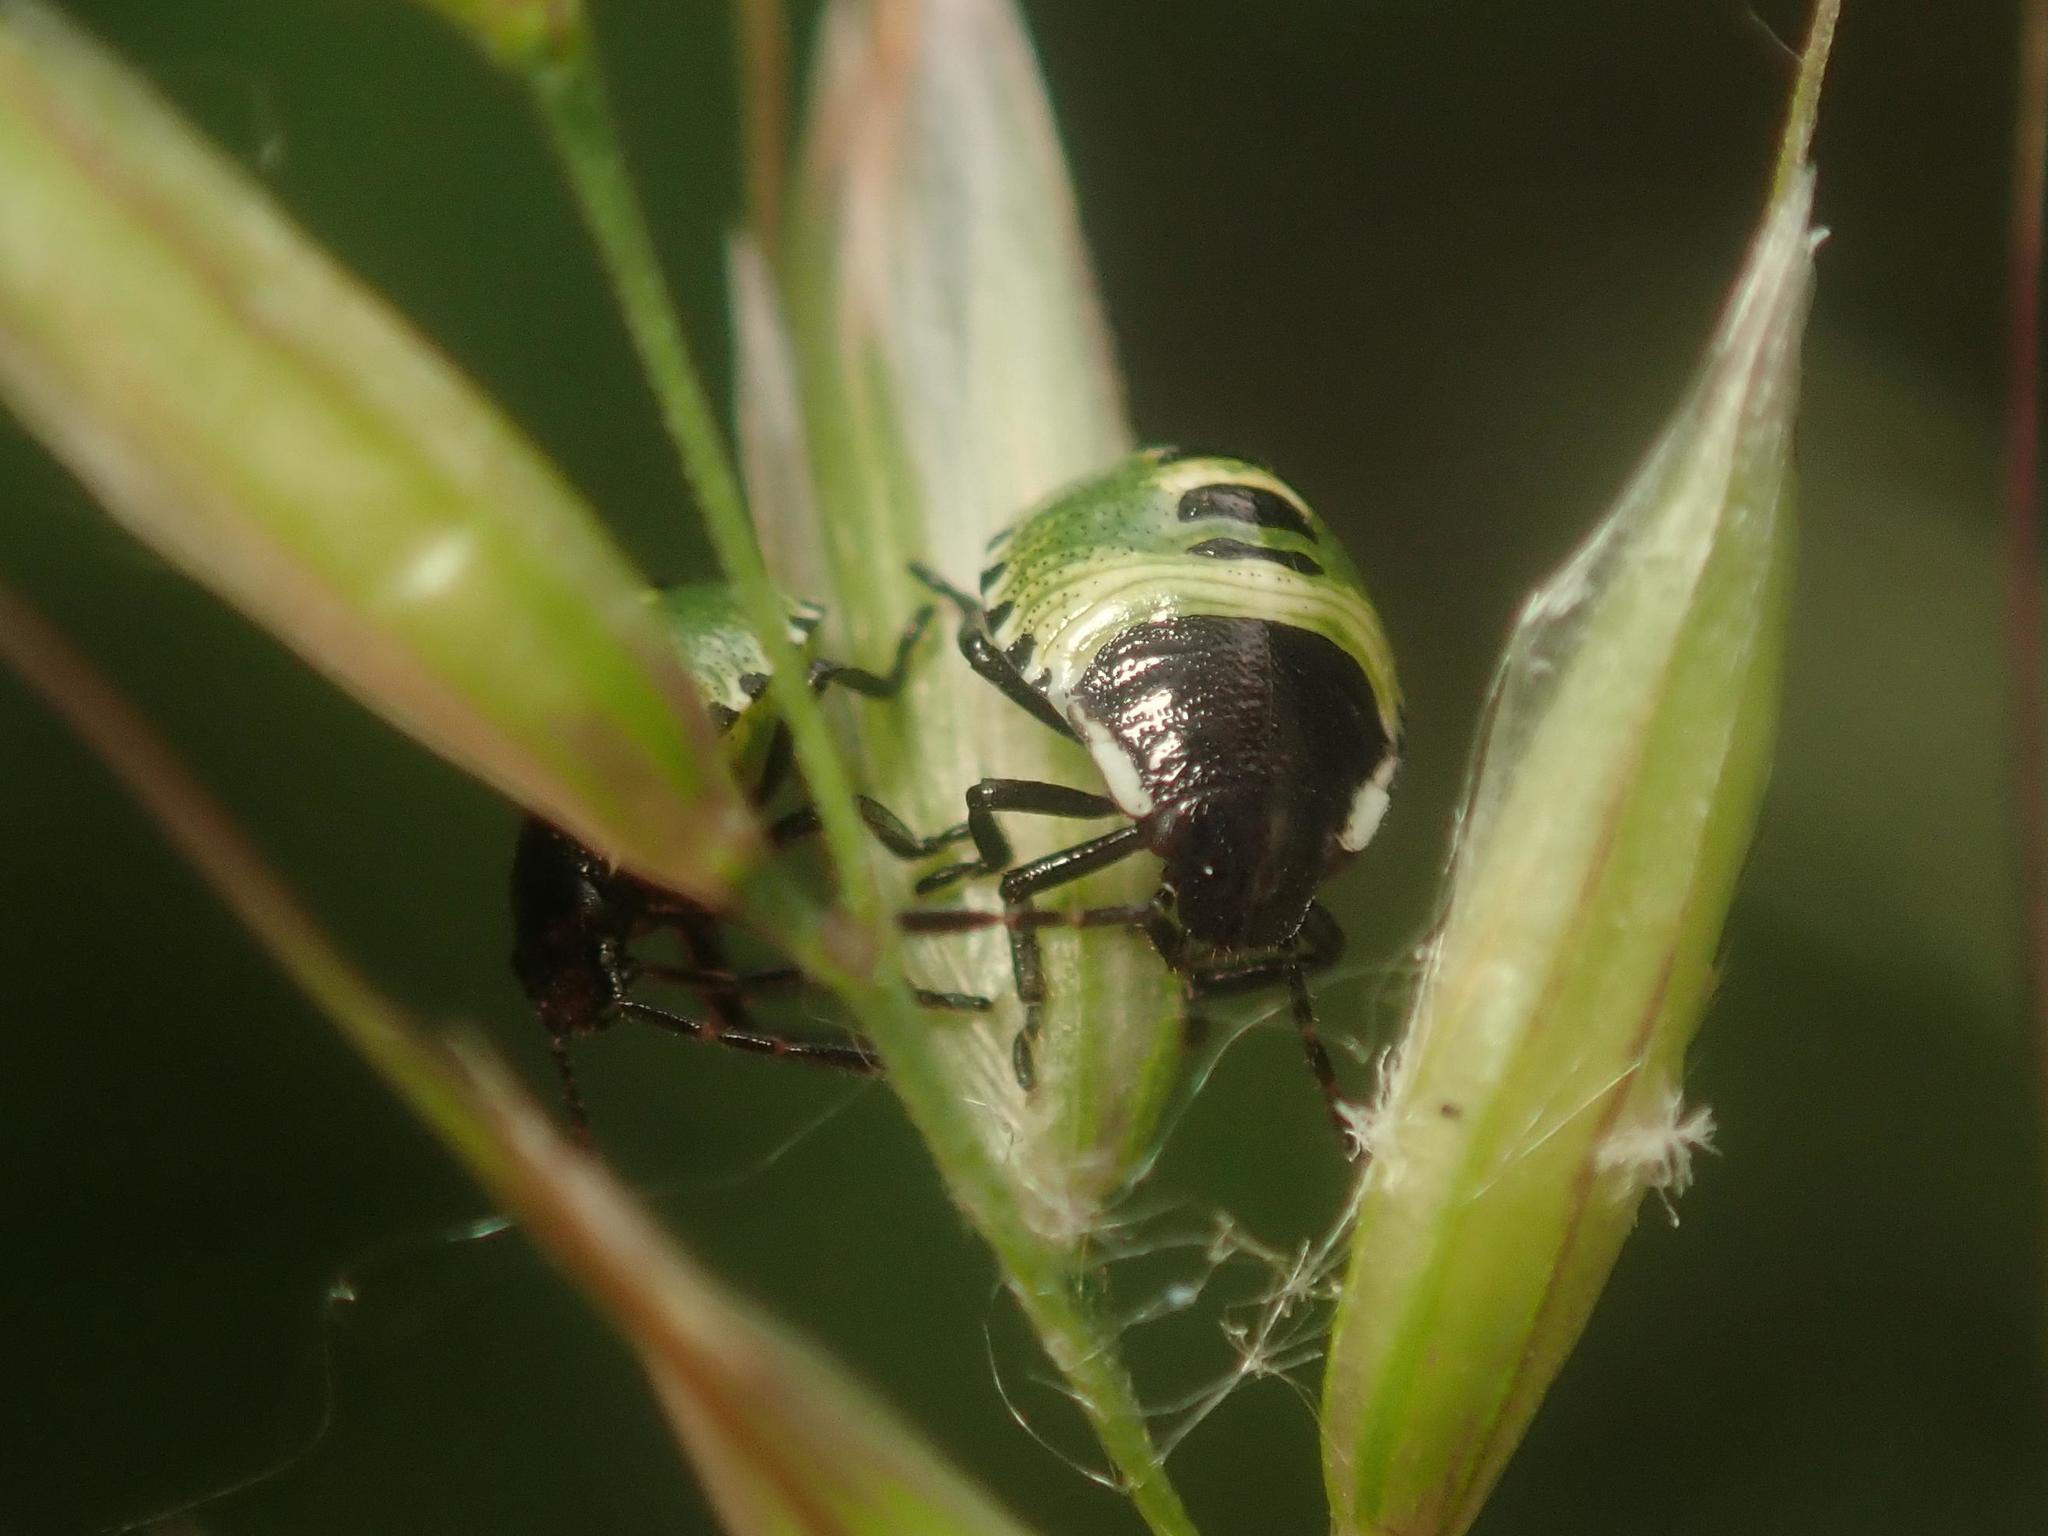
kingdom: Animalia
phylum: Arthropoda
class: Insecta
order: Hemiptera
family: Pentatomidae
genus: Palomena
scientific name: Palomena prasina
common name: Green shieldbug
